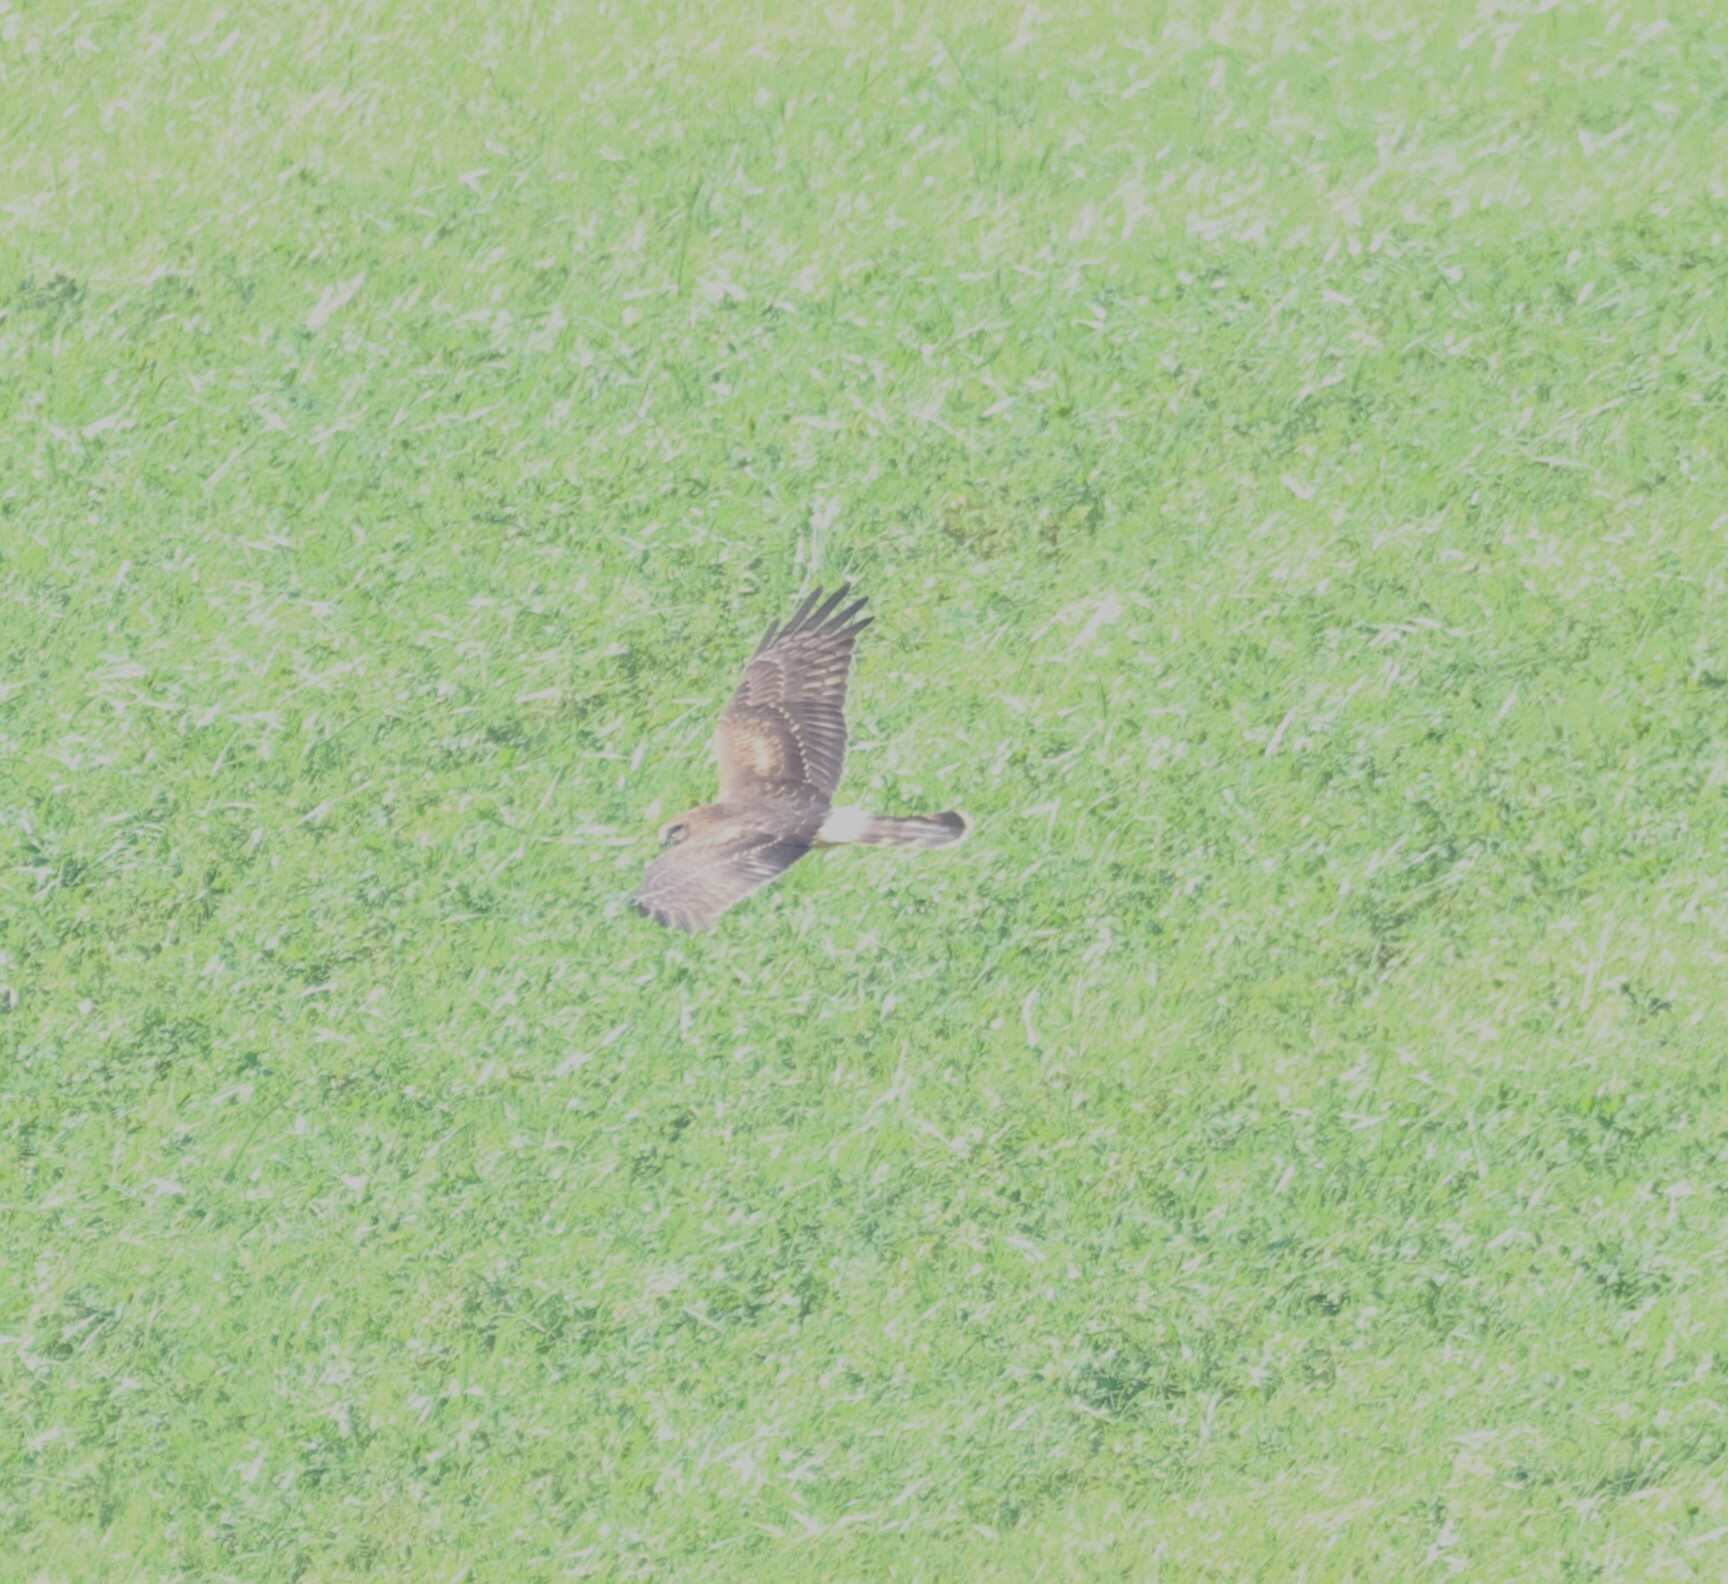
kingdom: Animalia
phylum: Chordata
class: Aves
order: Accipitriformes
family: Accipitridae
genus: Circus
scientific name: Circus cyaneus
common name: Hen harrier
